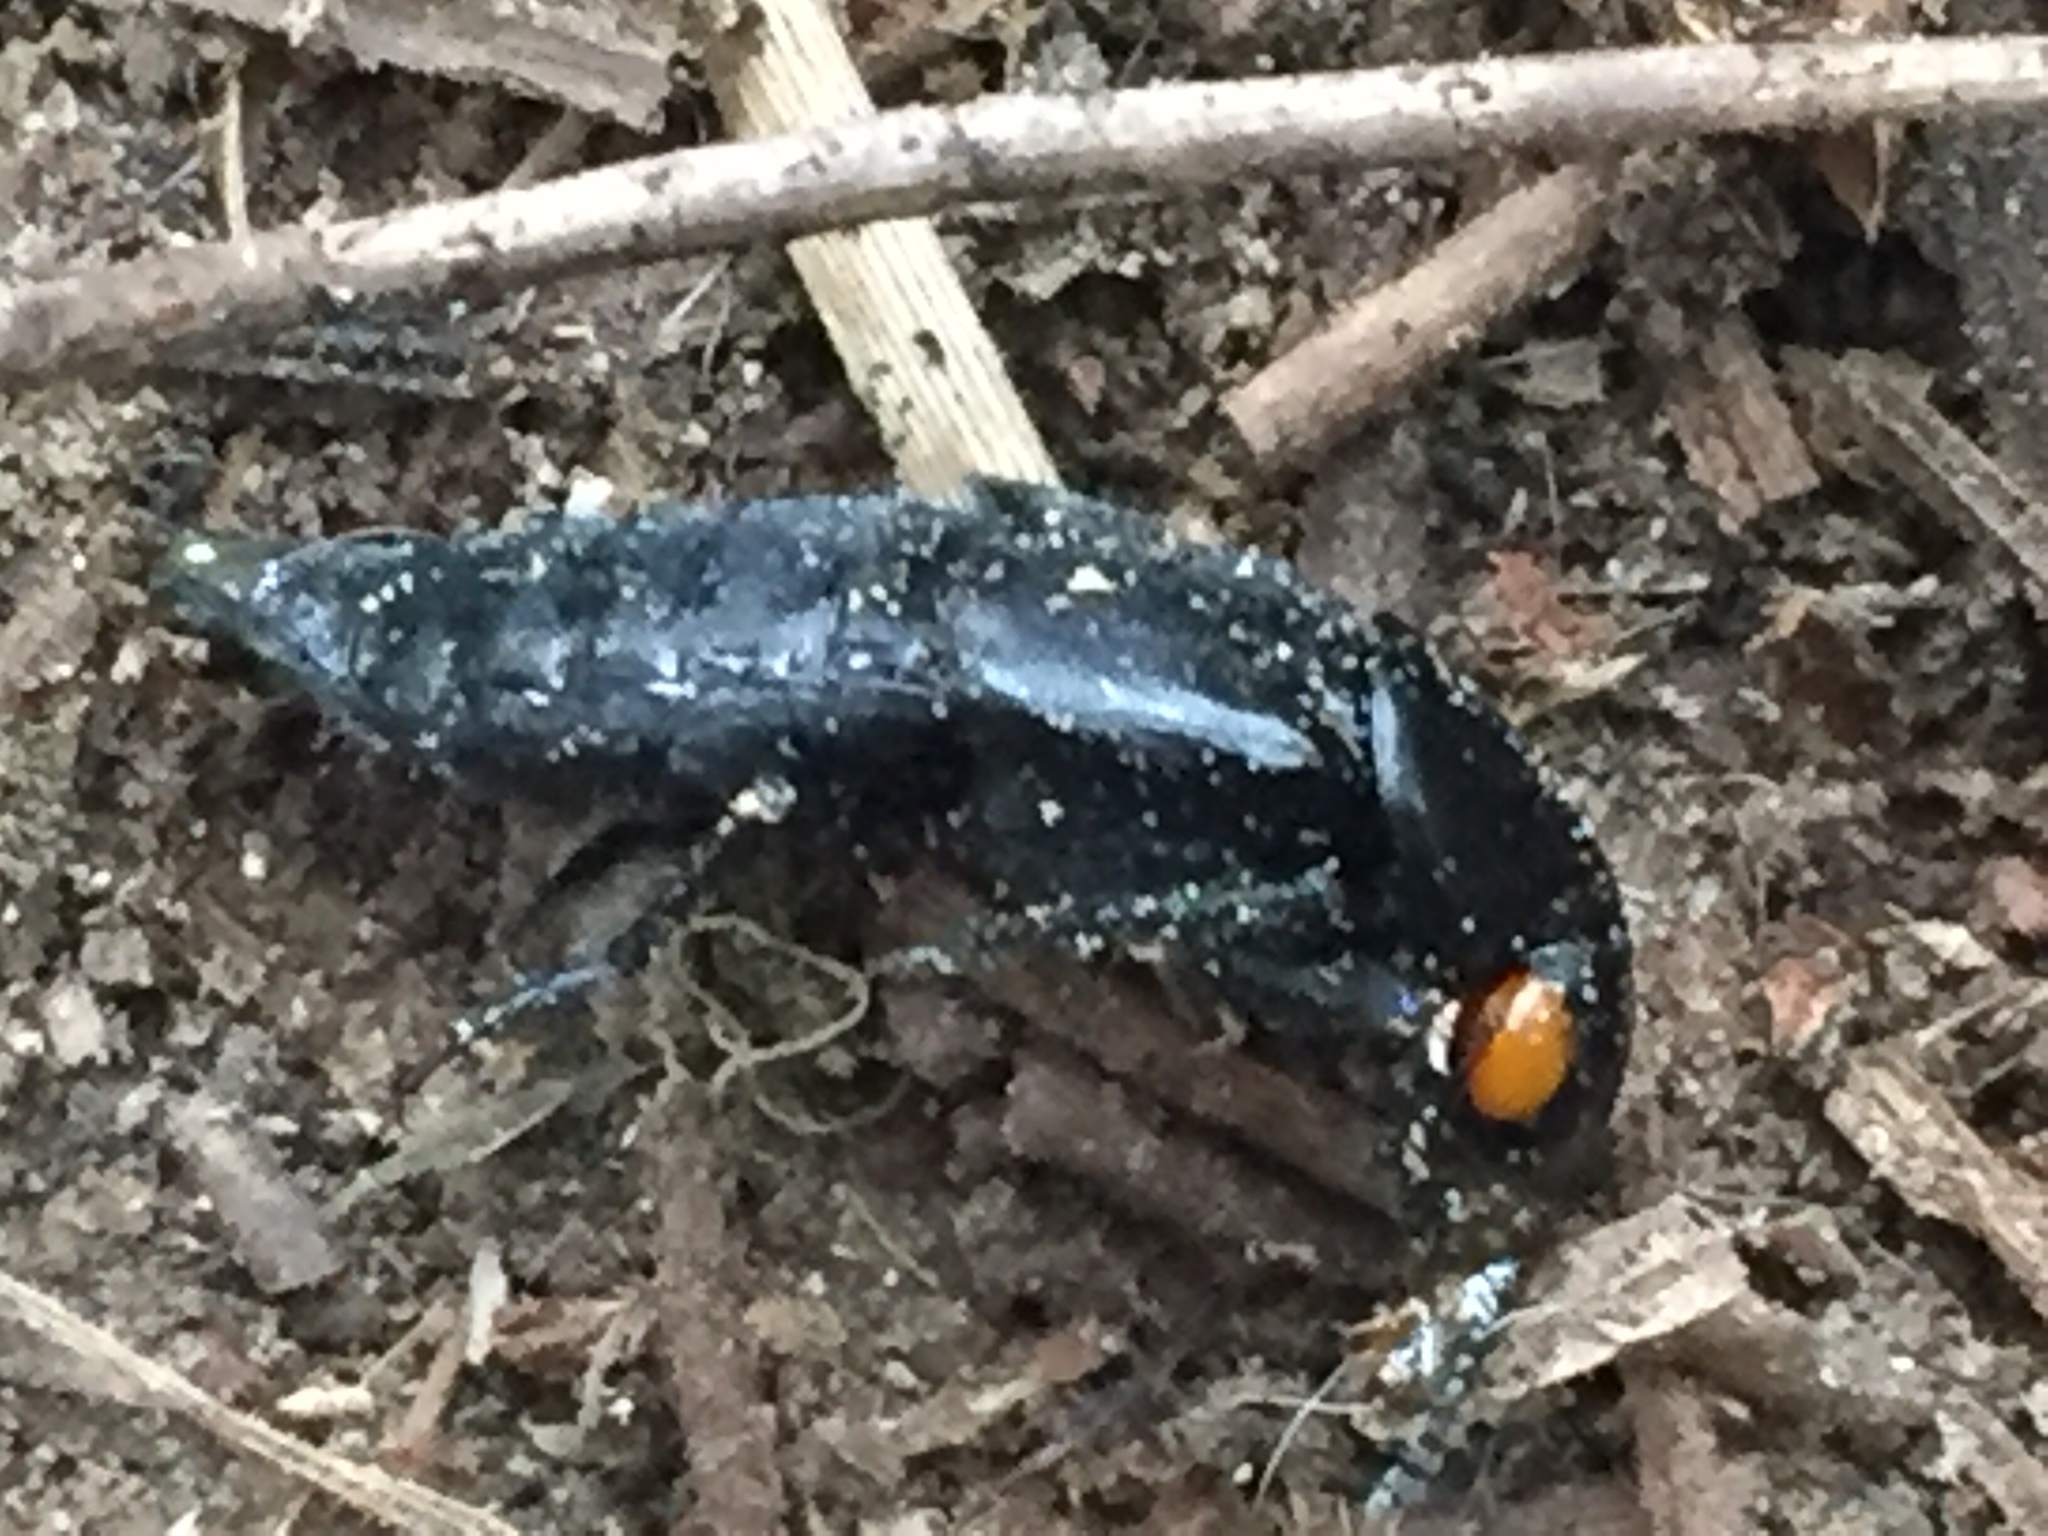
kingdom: Animalia
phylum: Arthropoda
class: Insecta
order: Coleoptera
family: Staphylinidae
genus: Creophilus
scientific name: Creophilus oculatus
